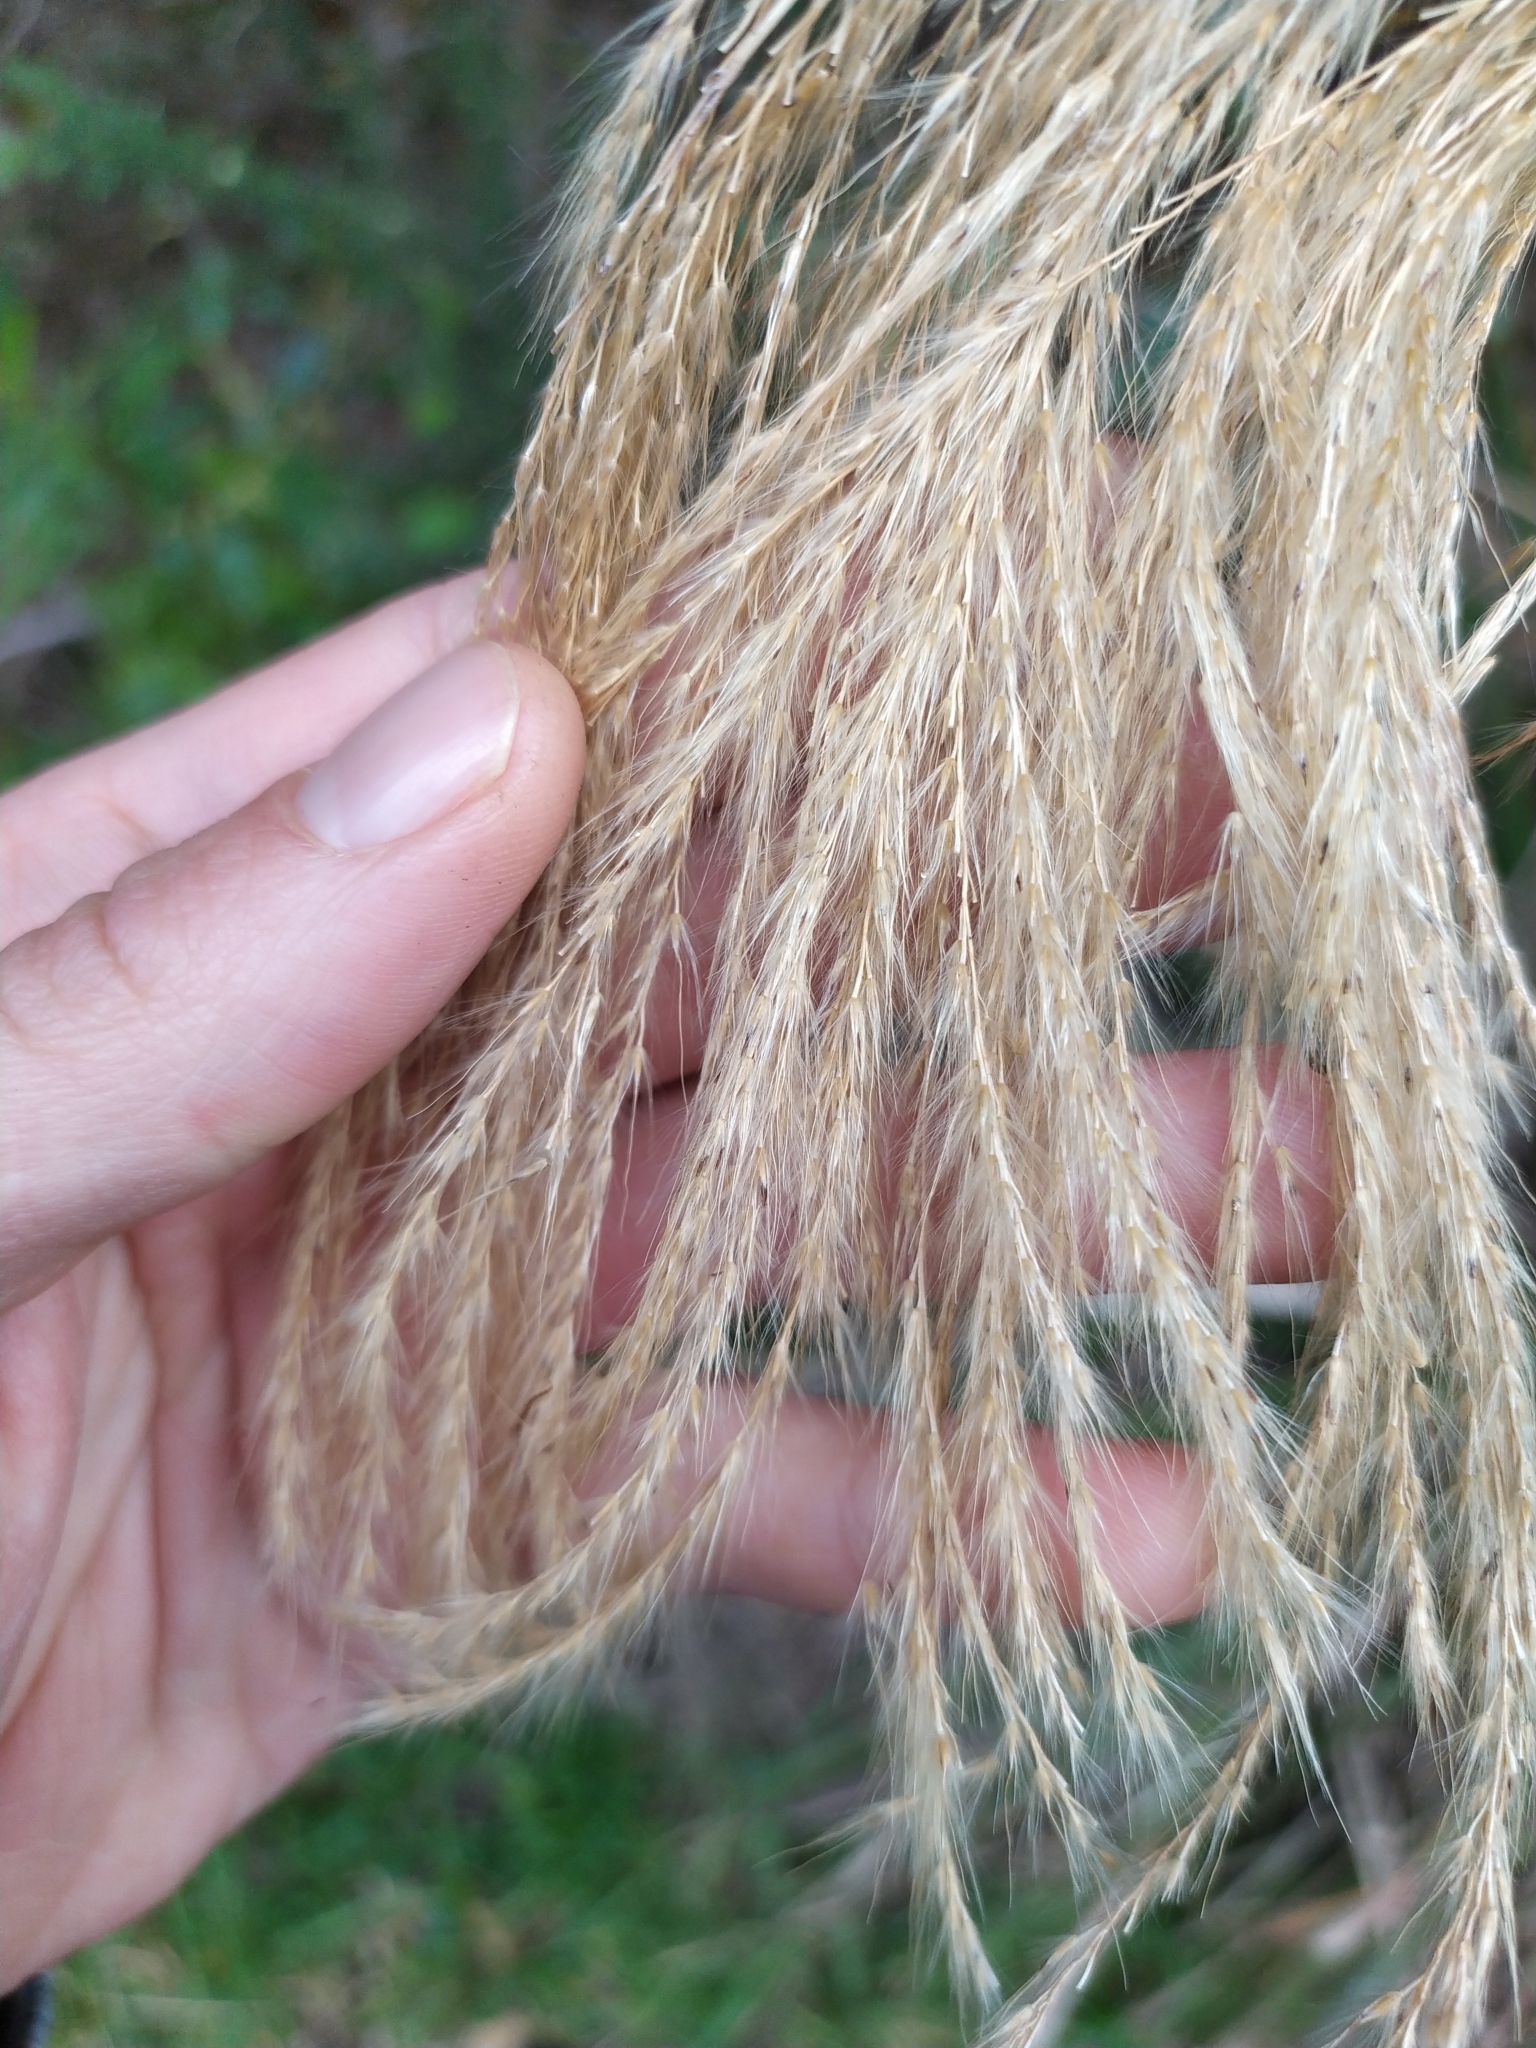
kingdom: Plantae
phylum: Tracheophyta
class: Liliopsida
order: Poales
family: Poaceae
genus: Miscanthus
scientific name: Miscanthus nepalensis
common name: Nepal silver grass
